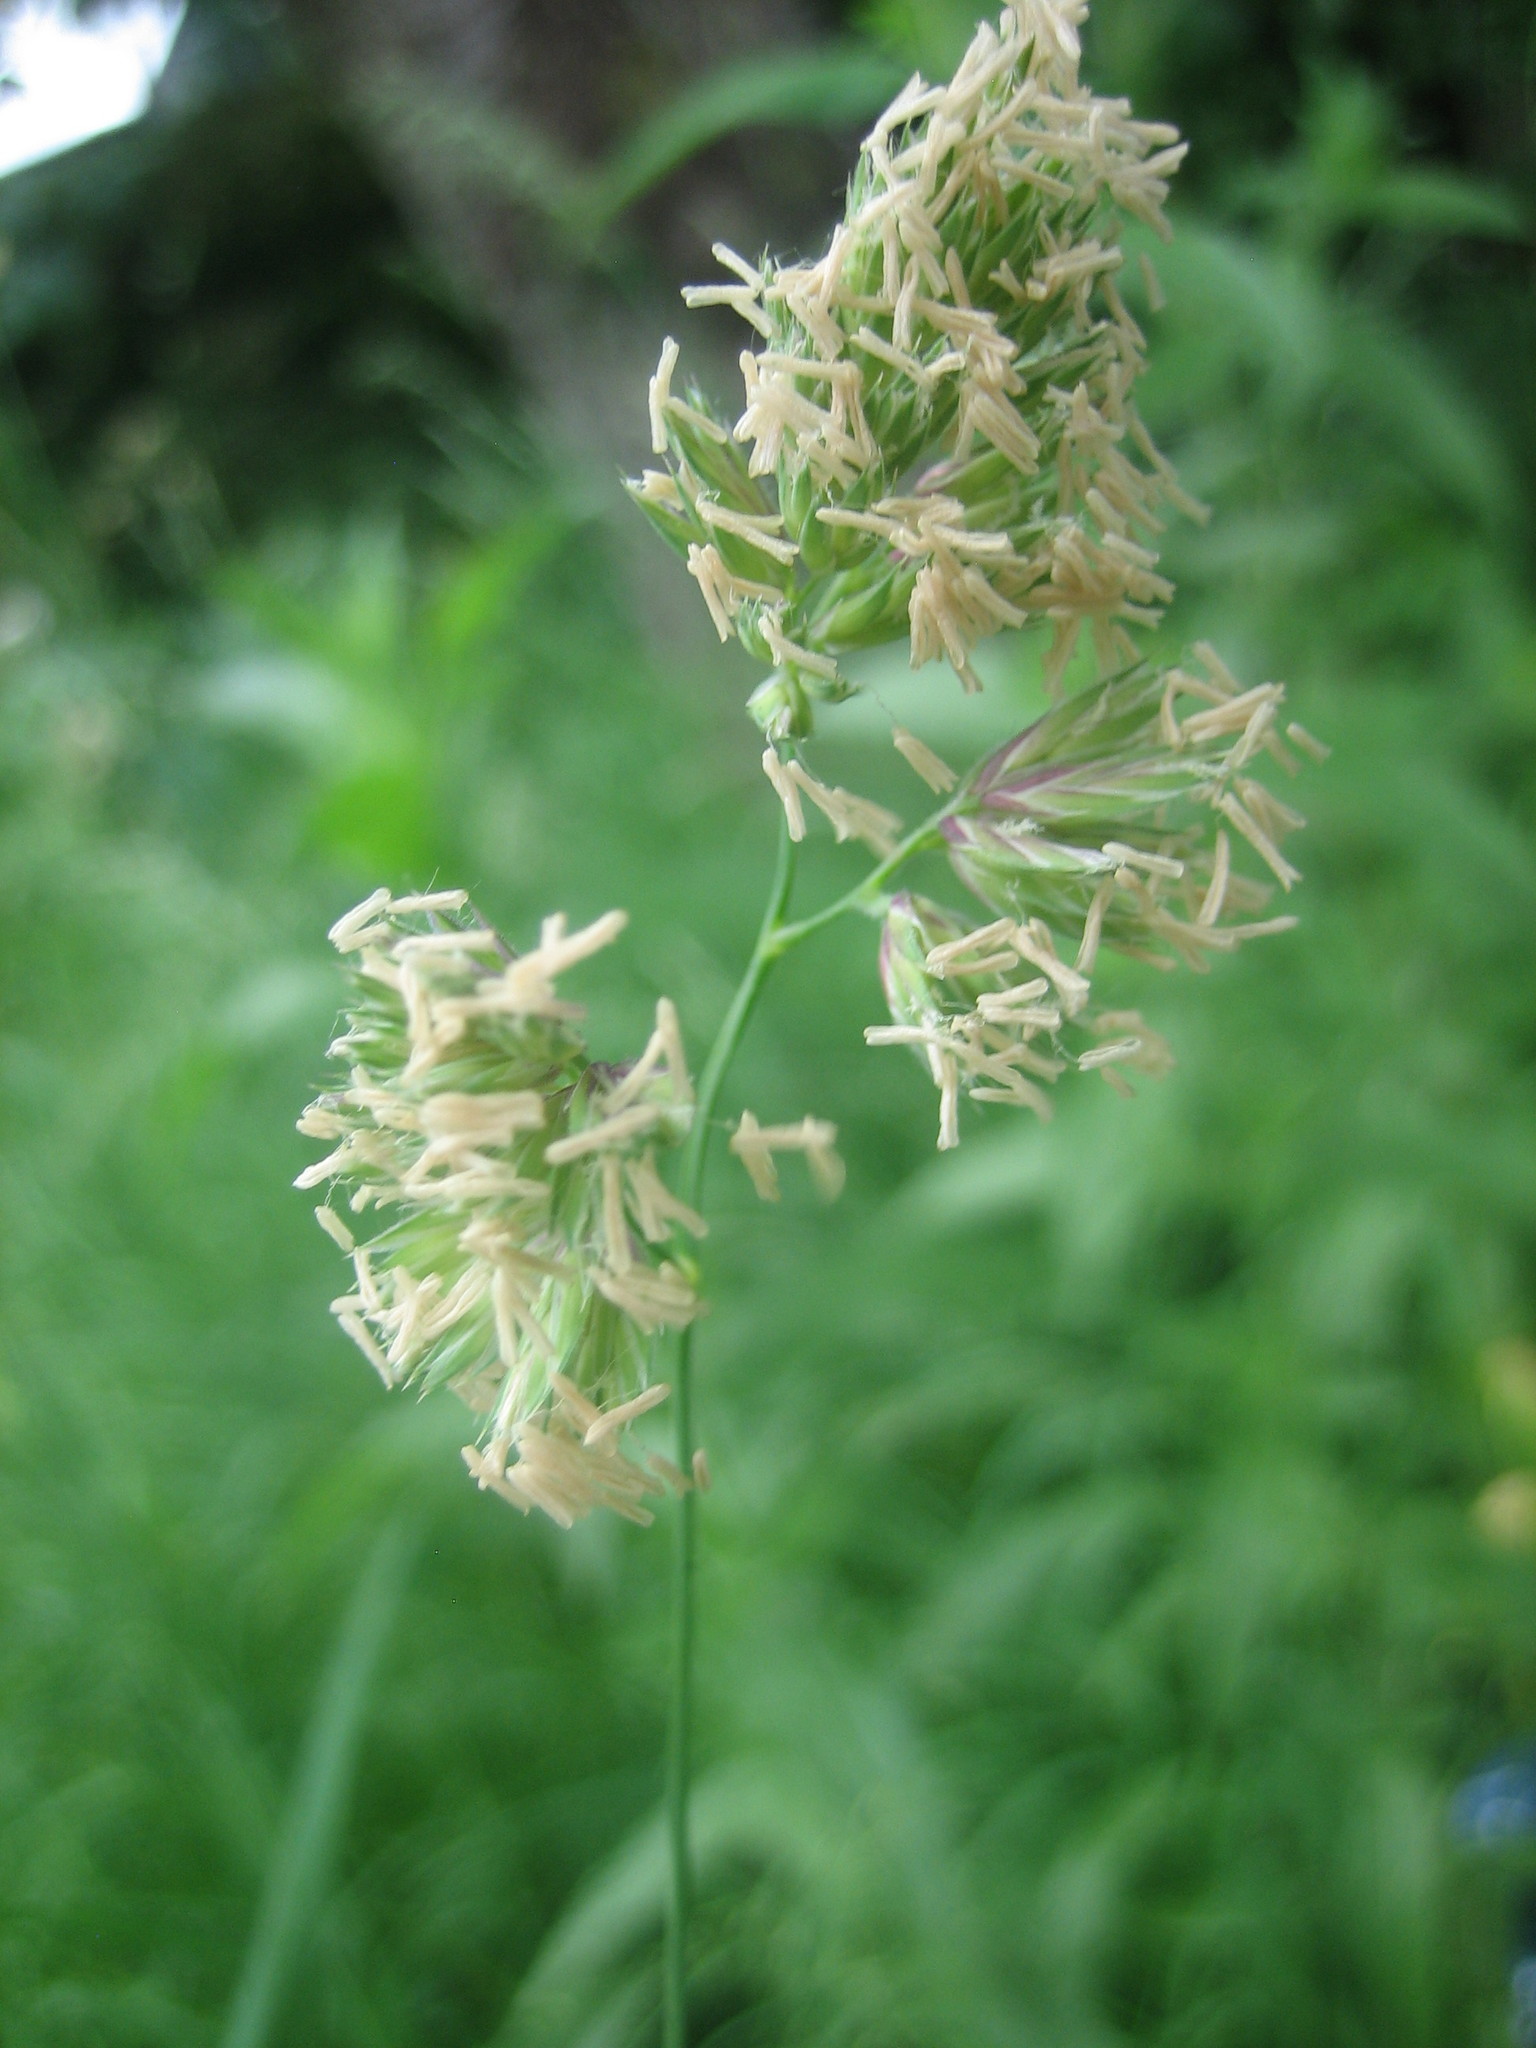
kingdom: Plantae
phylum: Tracheophyta
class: Liliopsida
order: Poales
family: Poaceae
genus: Dactylis
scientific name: Dactylis glomerata
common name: Orchardgrass
